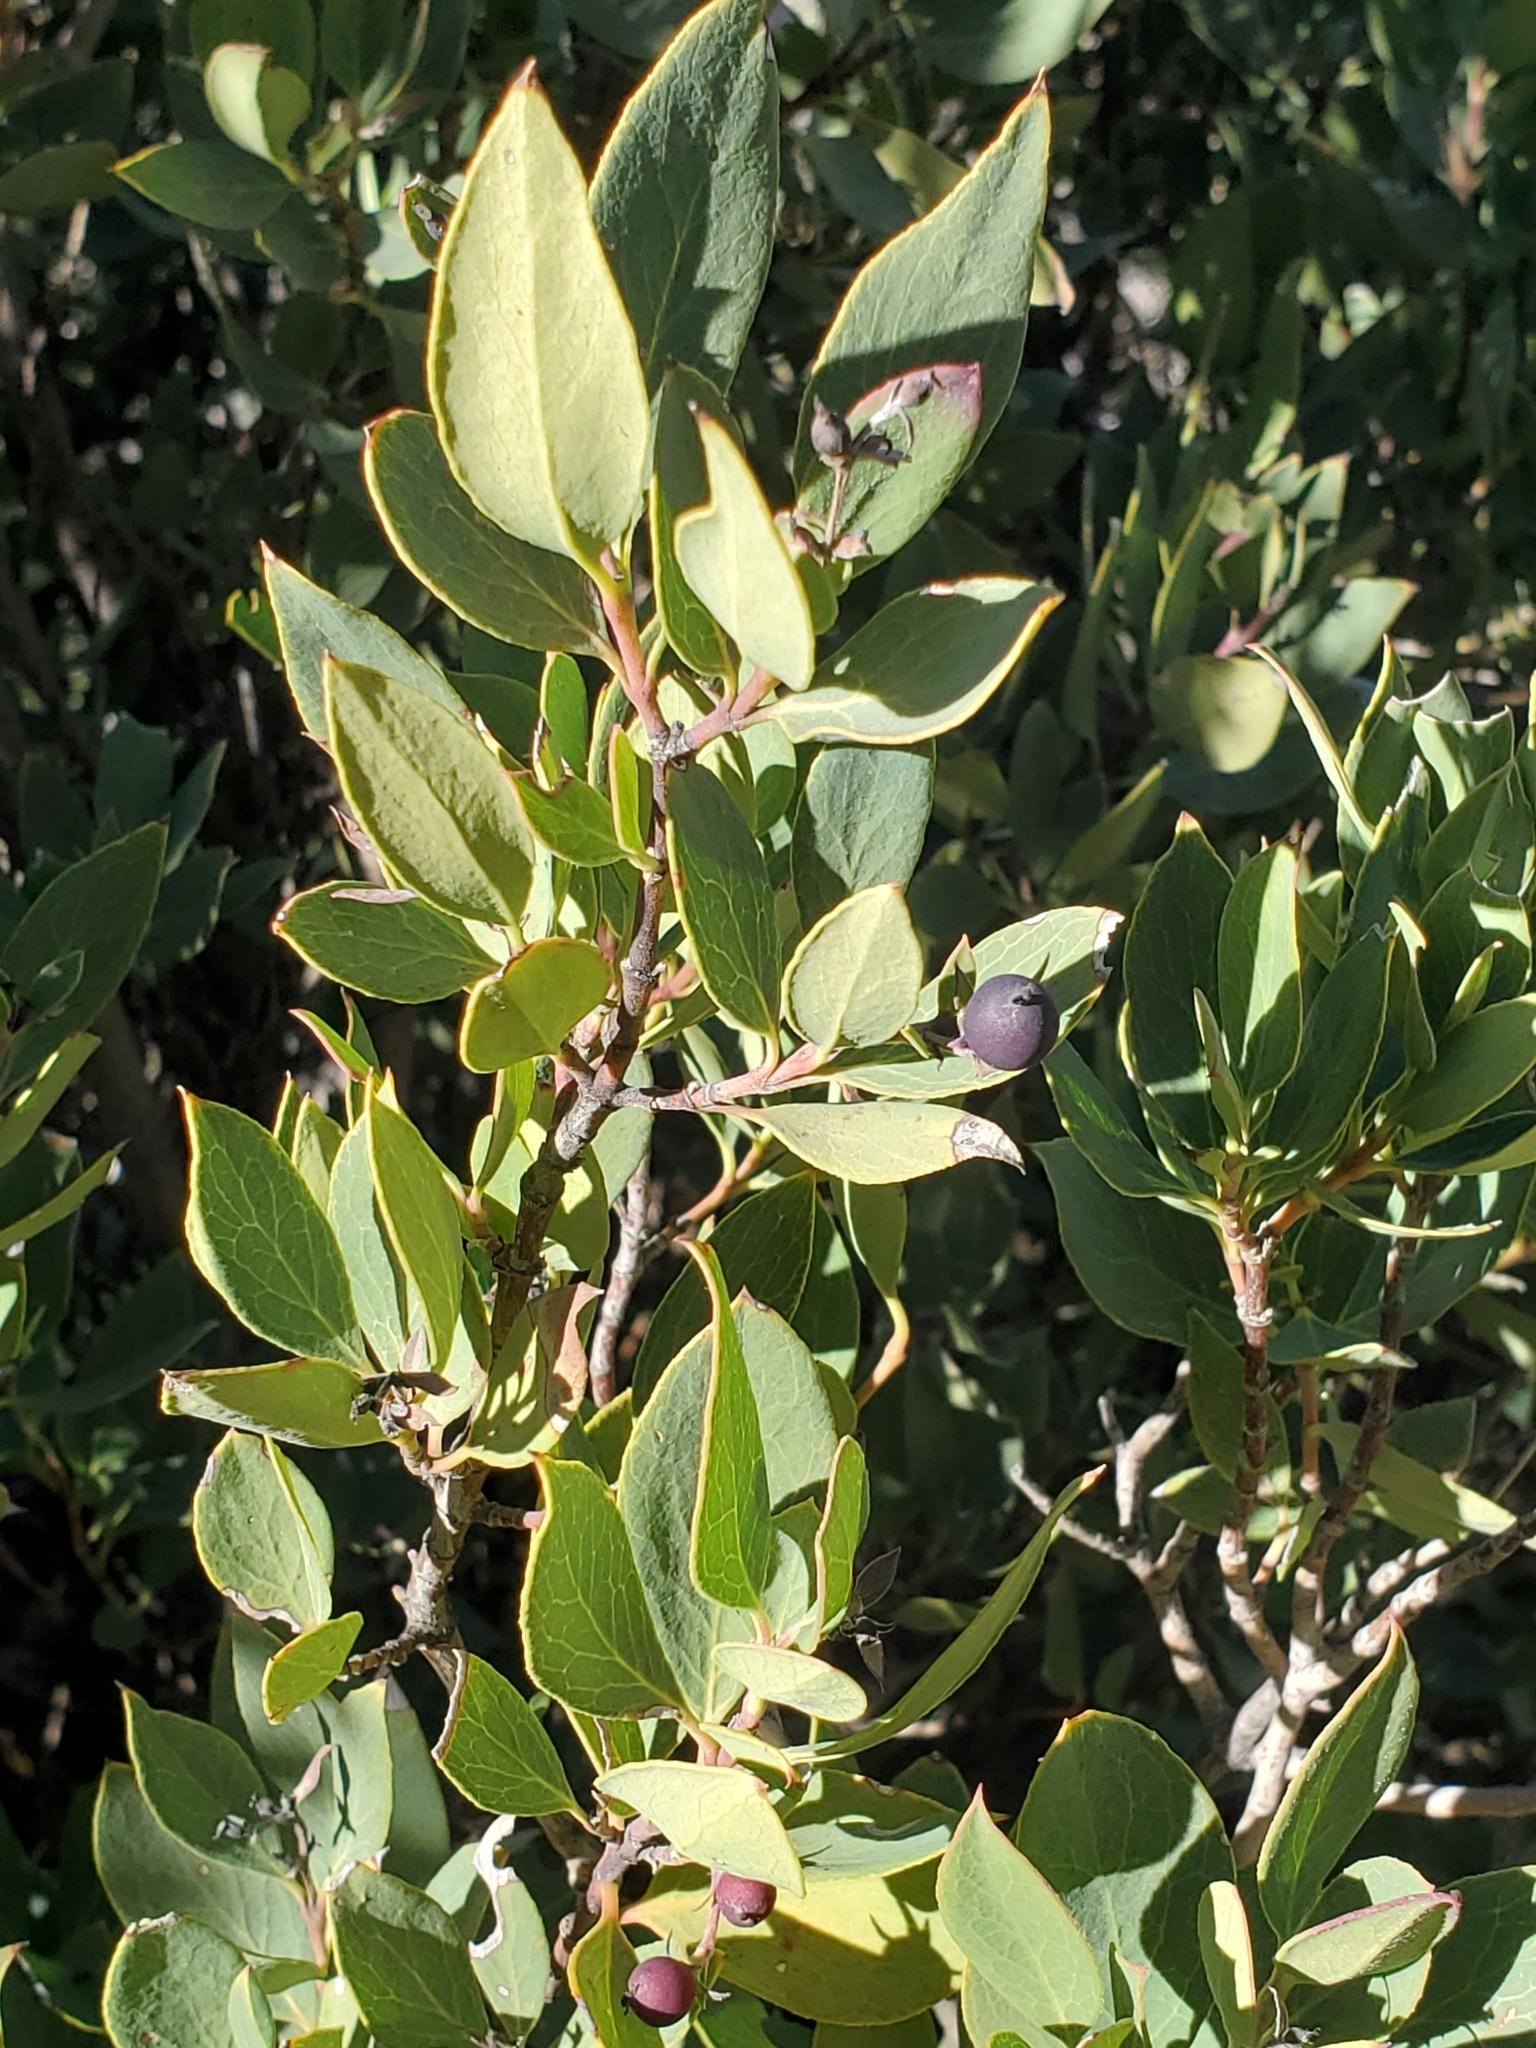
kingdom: Plantae
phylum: Tracheophyta
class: Magnoliopsida
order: Garryales
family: Garryaceae
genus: Garrya
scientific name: Garrya wrightii
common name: Wright's silktassel
